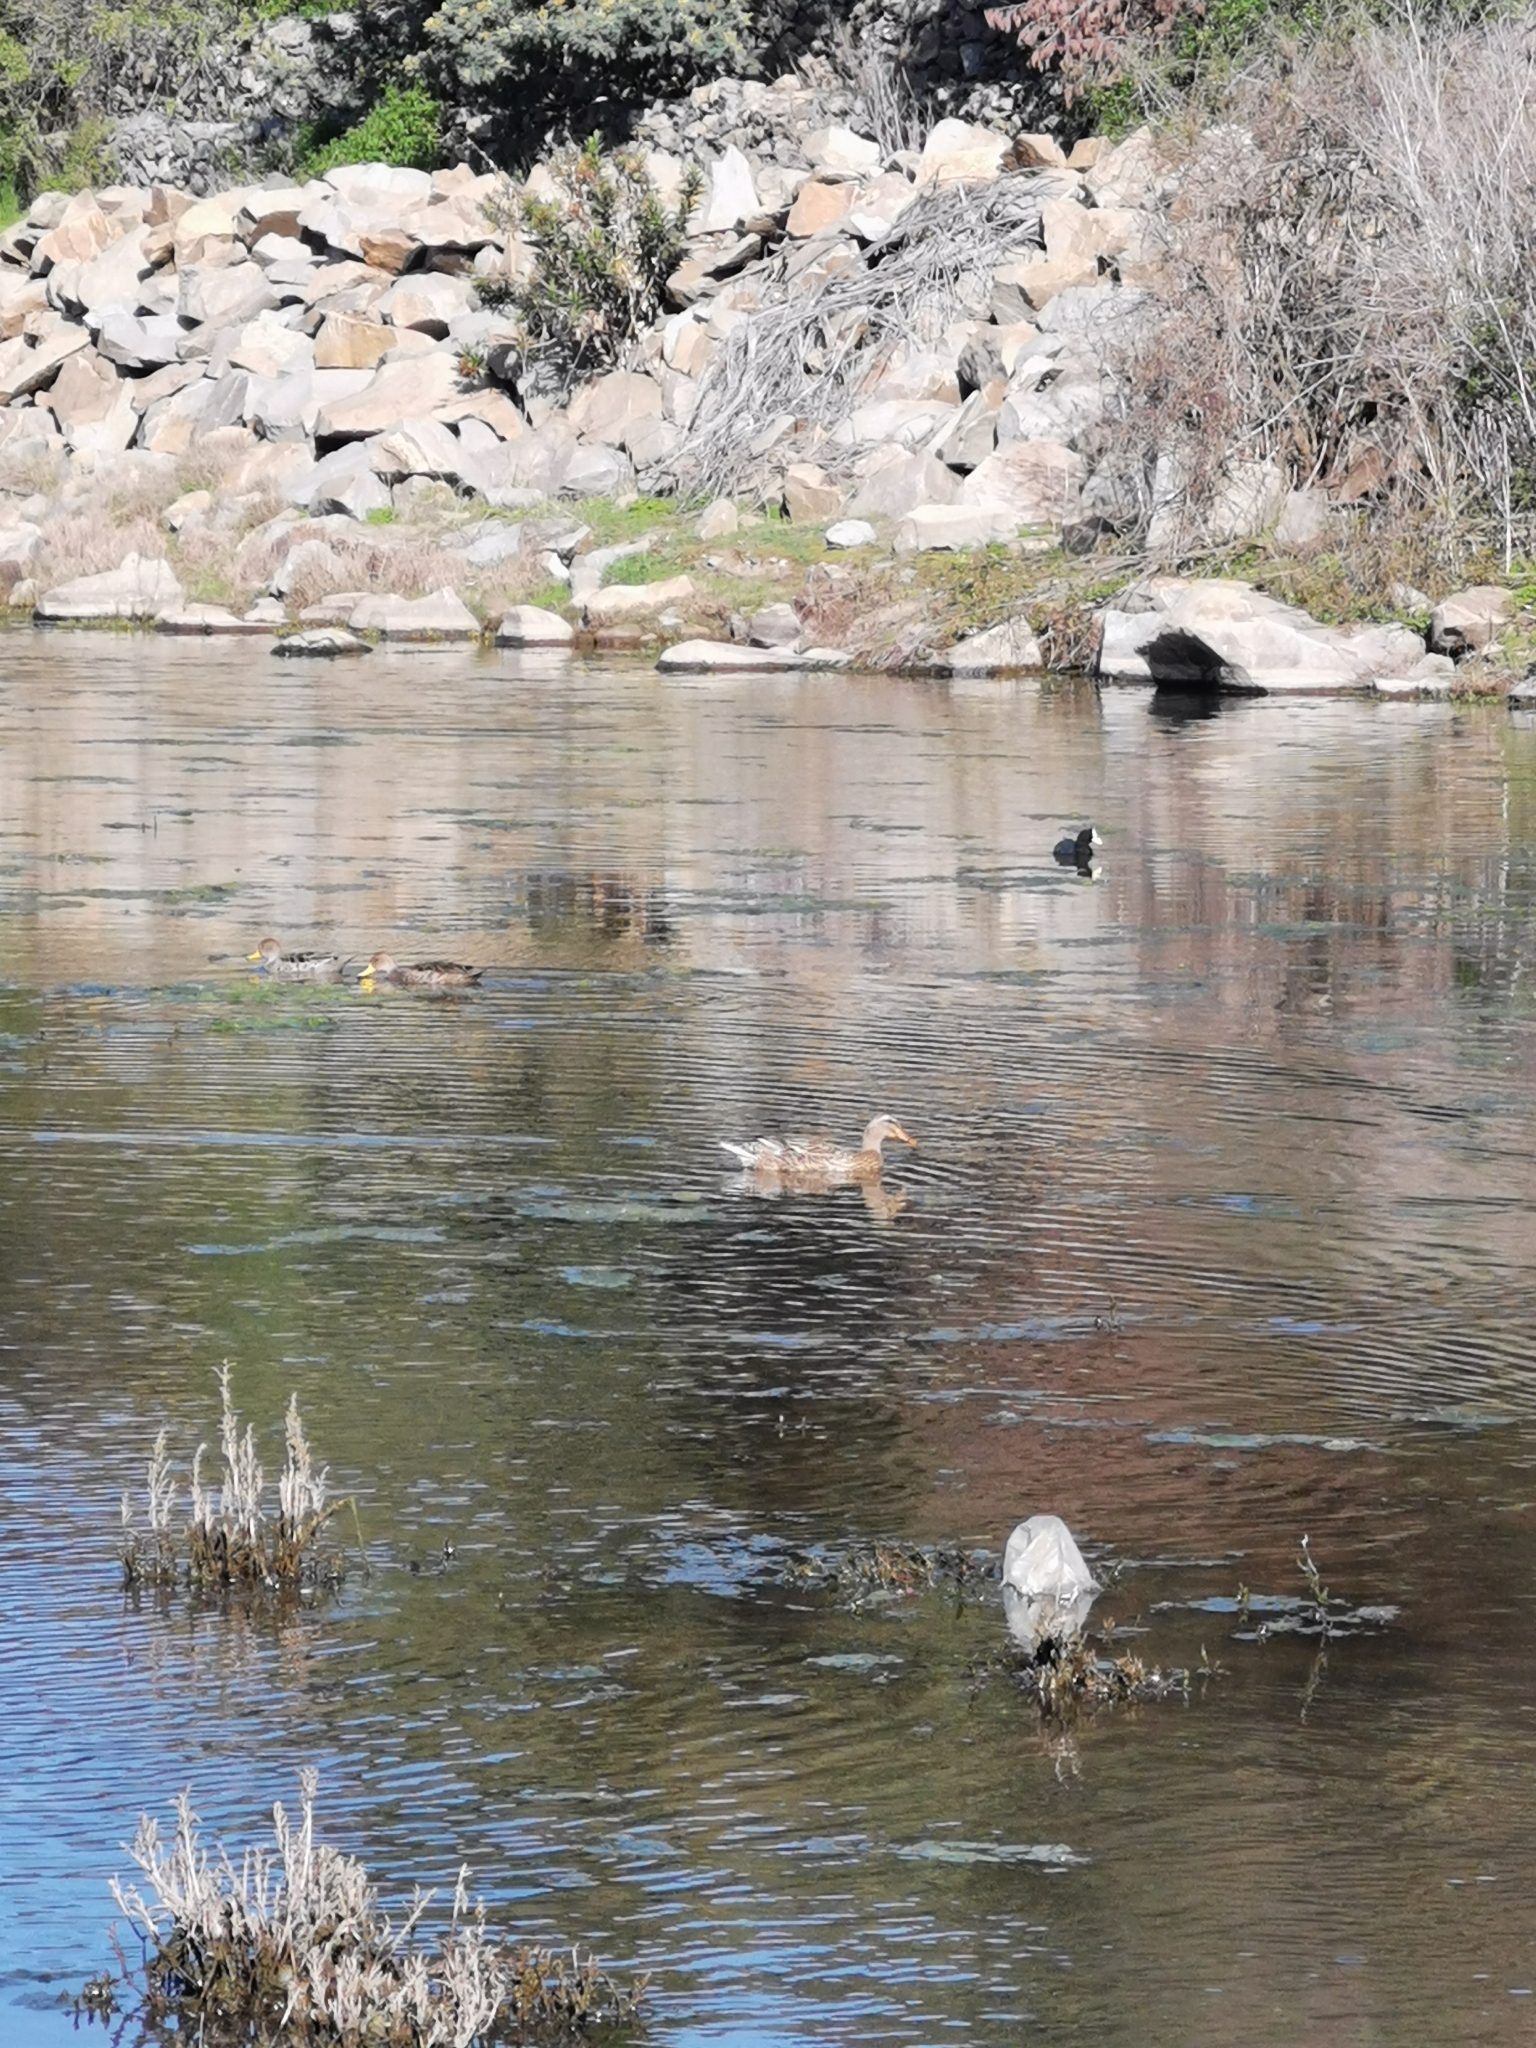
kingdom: Animalia
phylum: Chordata
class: Aves
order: Anseriformes
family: Anatidae
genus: Anas
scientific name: Anas platyrhynchos
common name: Mallard
